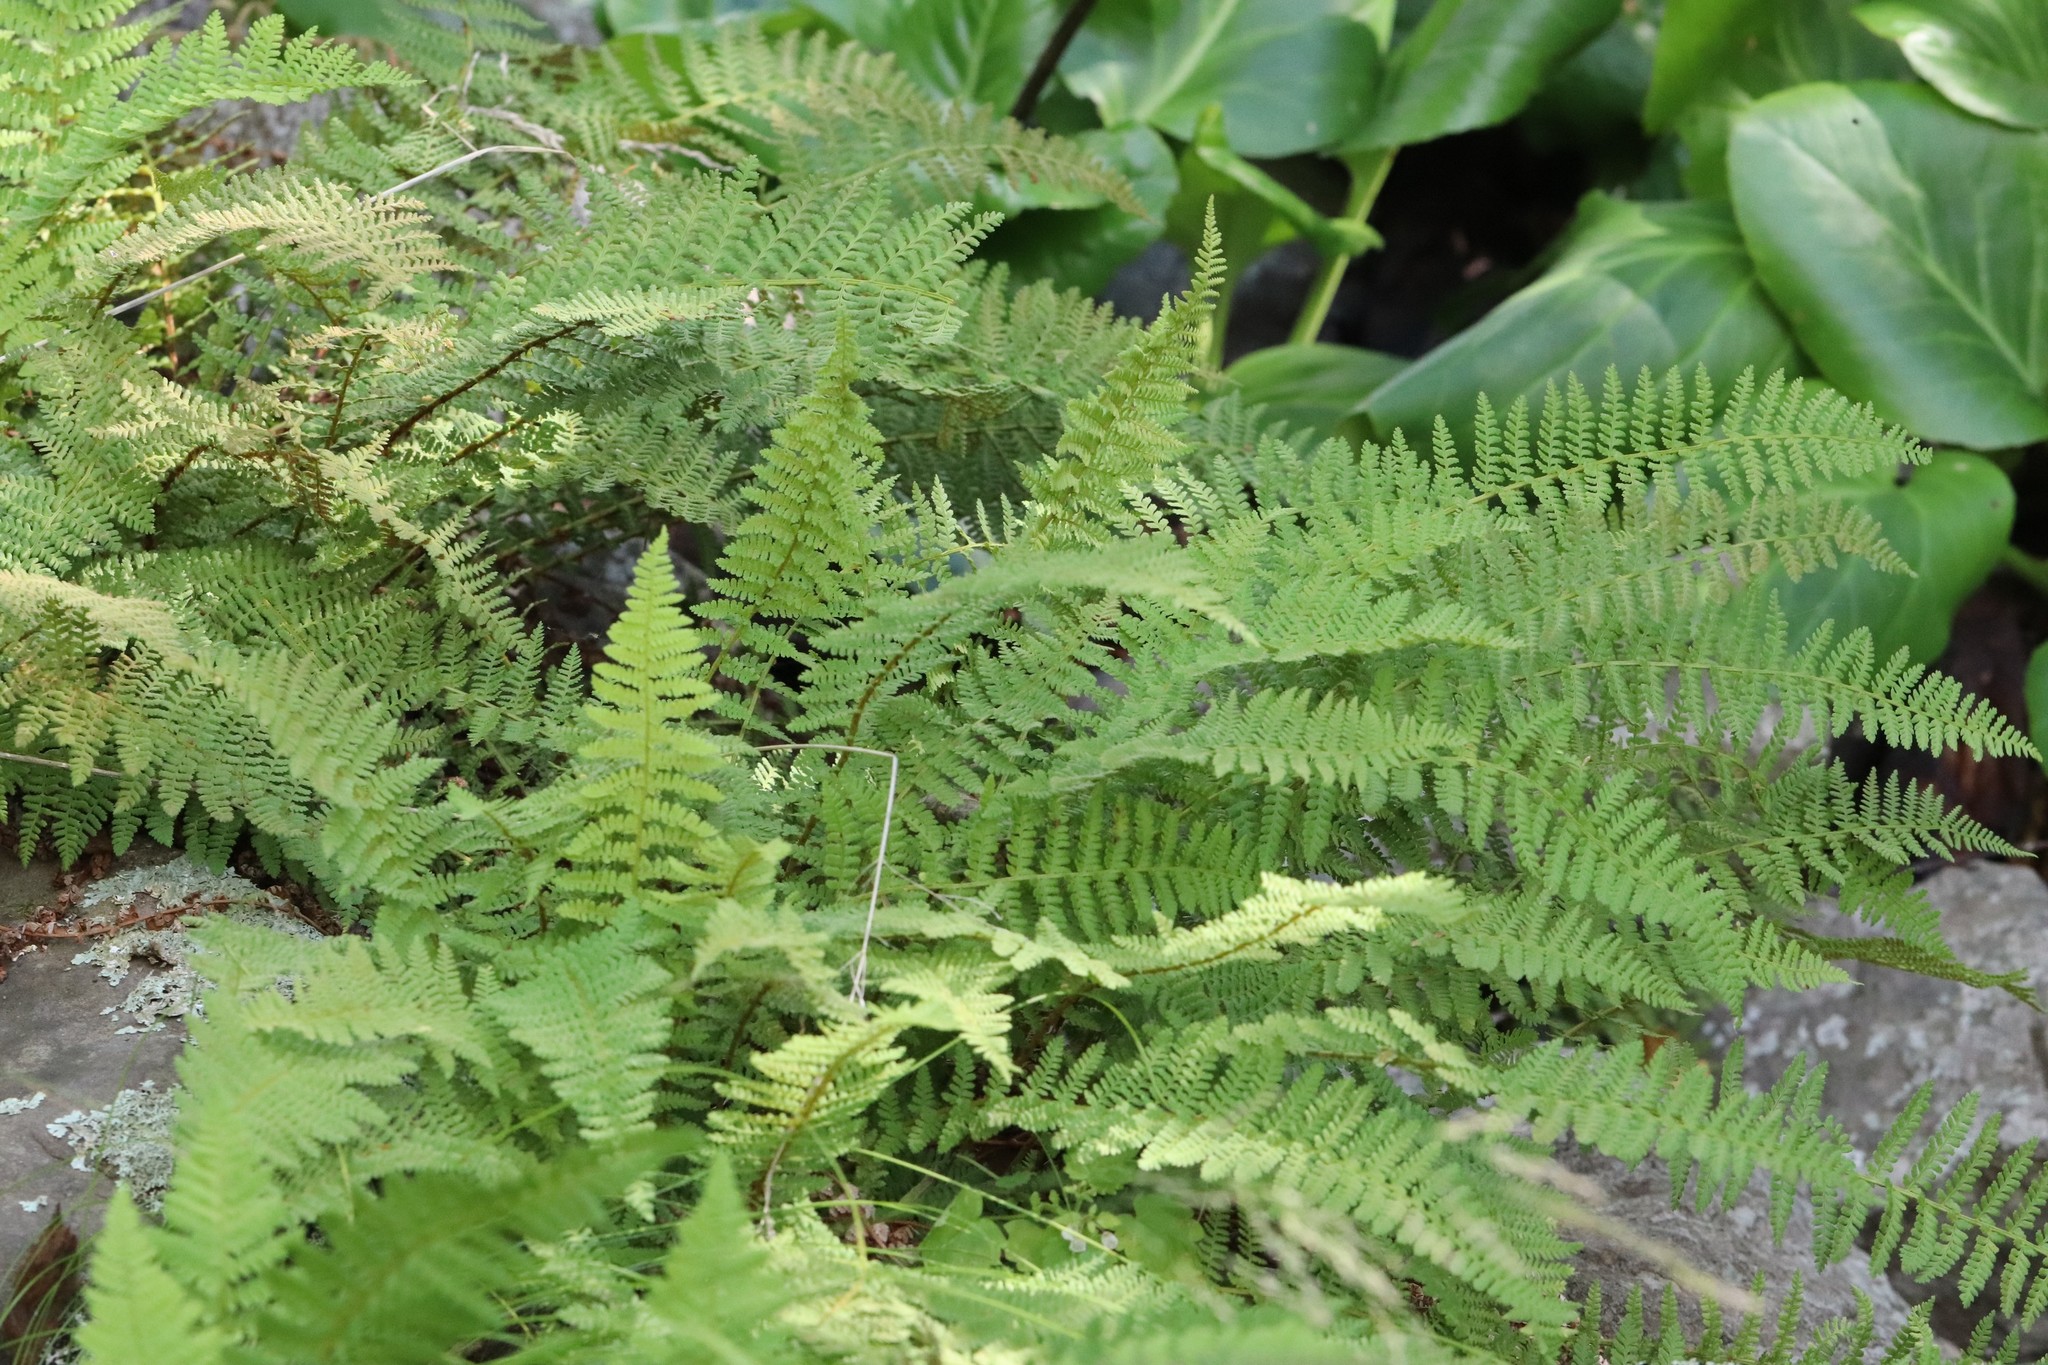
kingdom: Plantae
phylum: Tracheophyta
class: Polypodiopsida
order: Polypodiales
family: Dryopteridaceae
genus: Dryopteris
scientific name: Dryopteris fragrans
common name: Fragrant wood fern
